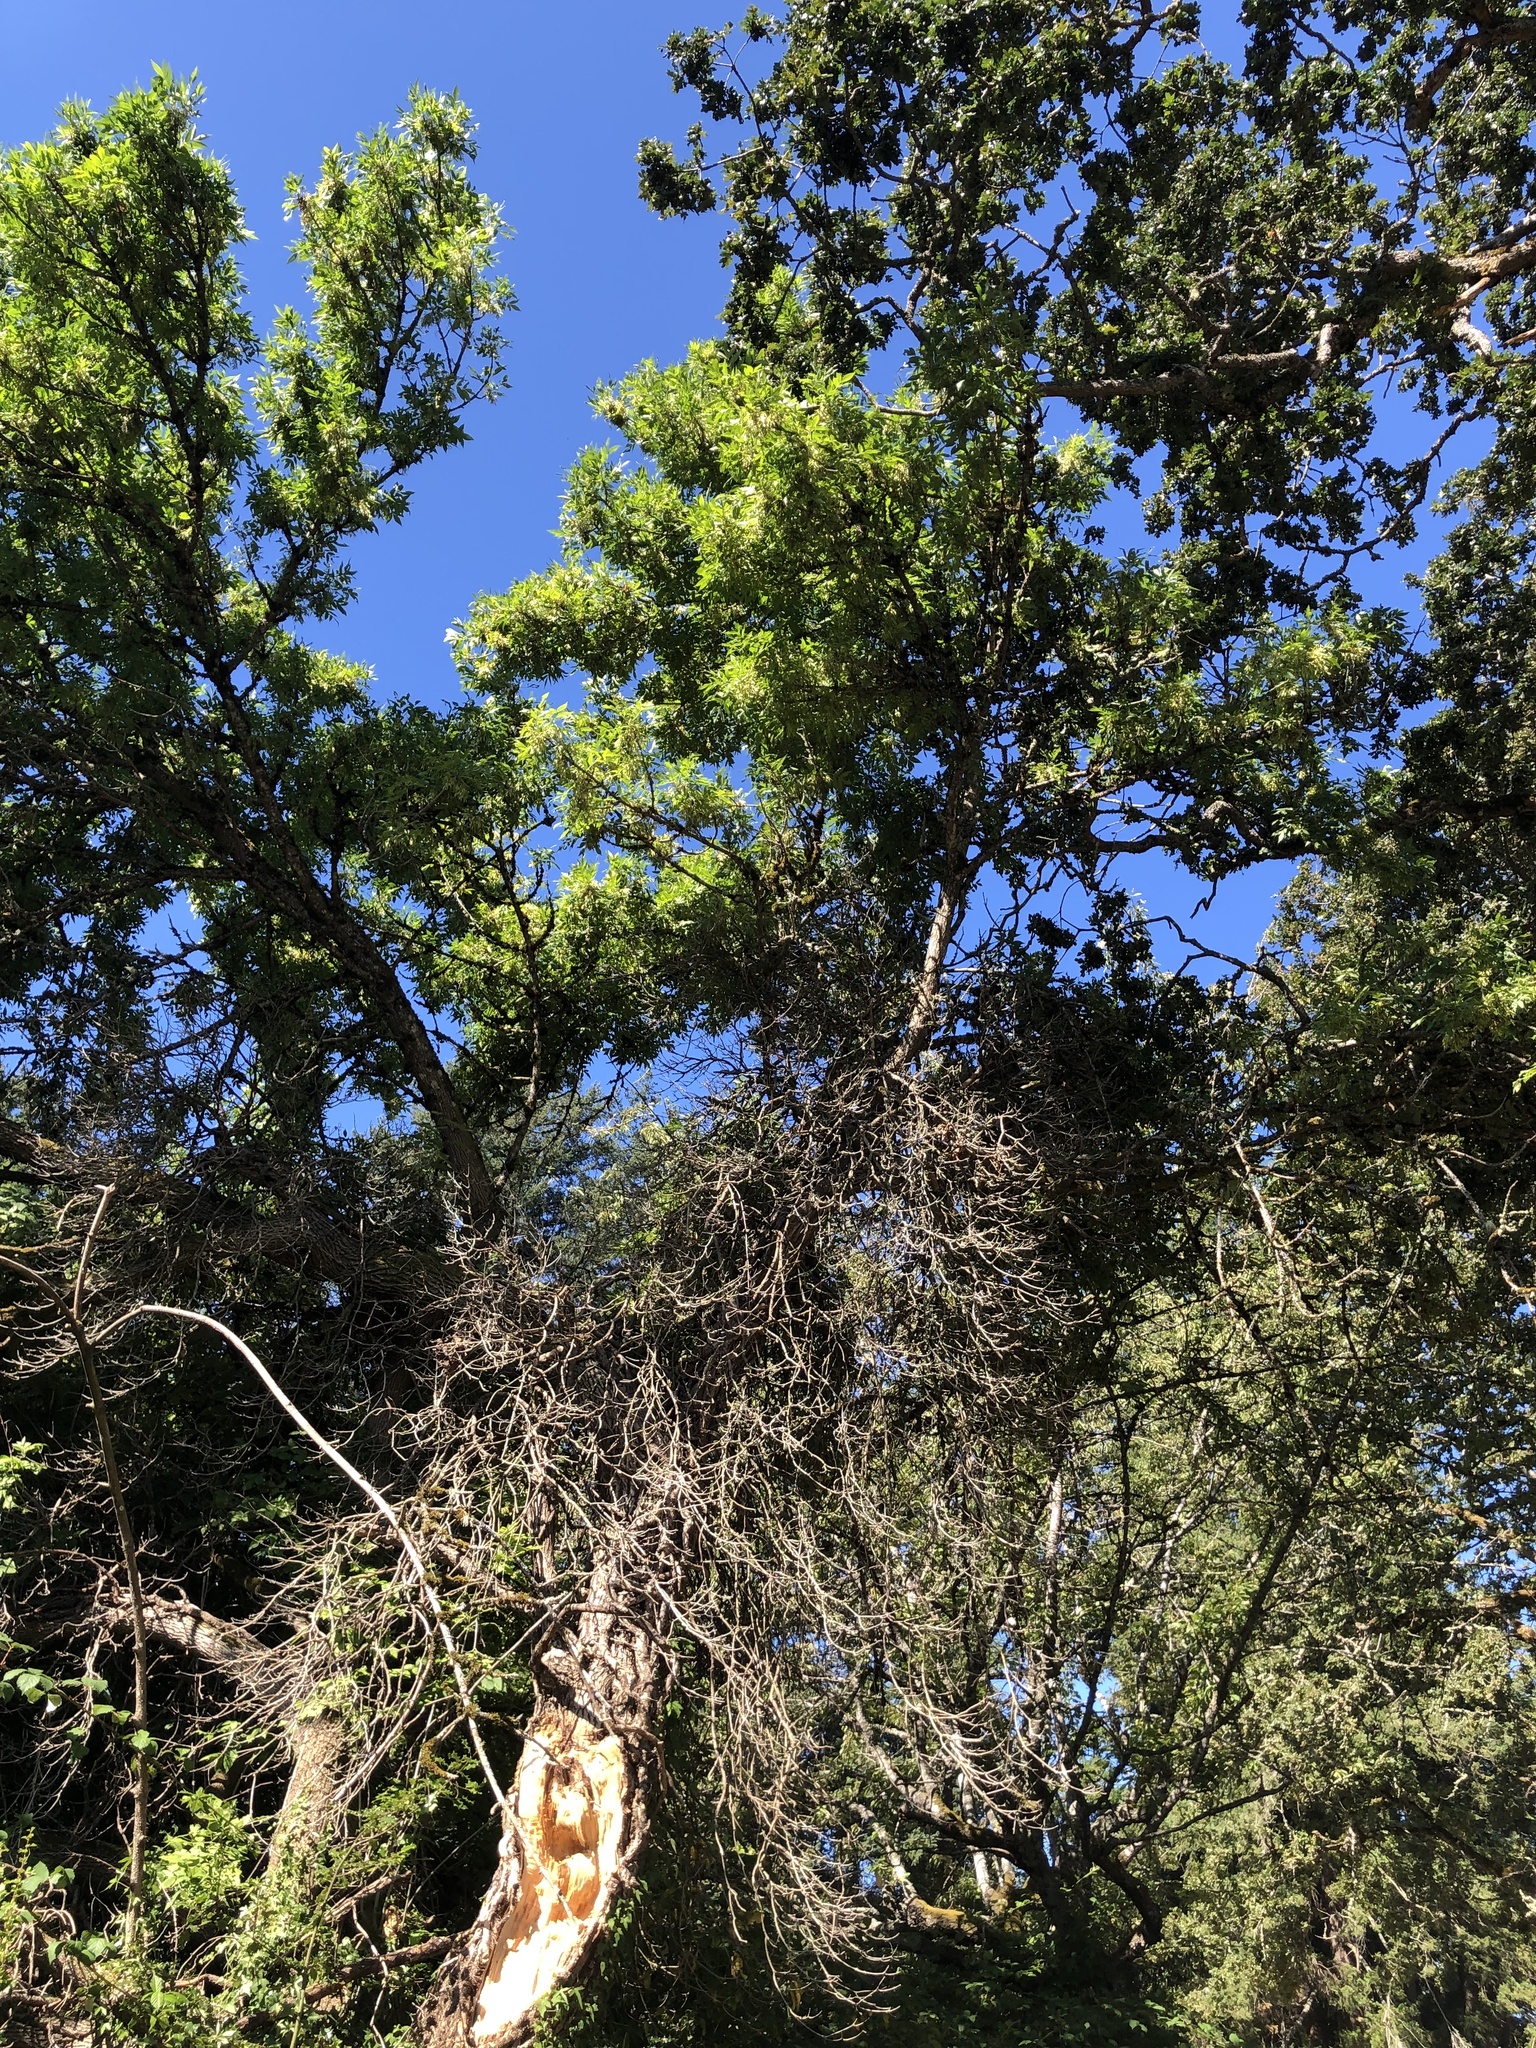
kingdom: Plantae
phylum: Tracheophyta
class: Magnoliopsida
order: Lamiales
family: Oleaceae
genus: Fraxinus
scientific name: Fraxinus latifolia
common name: Oregon ash
